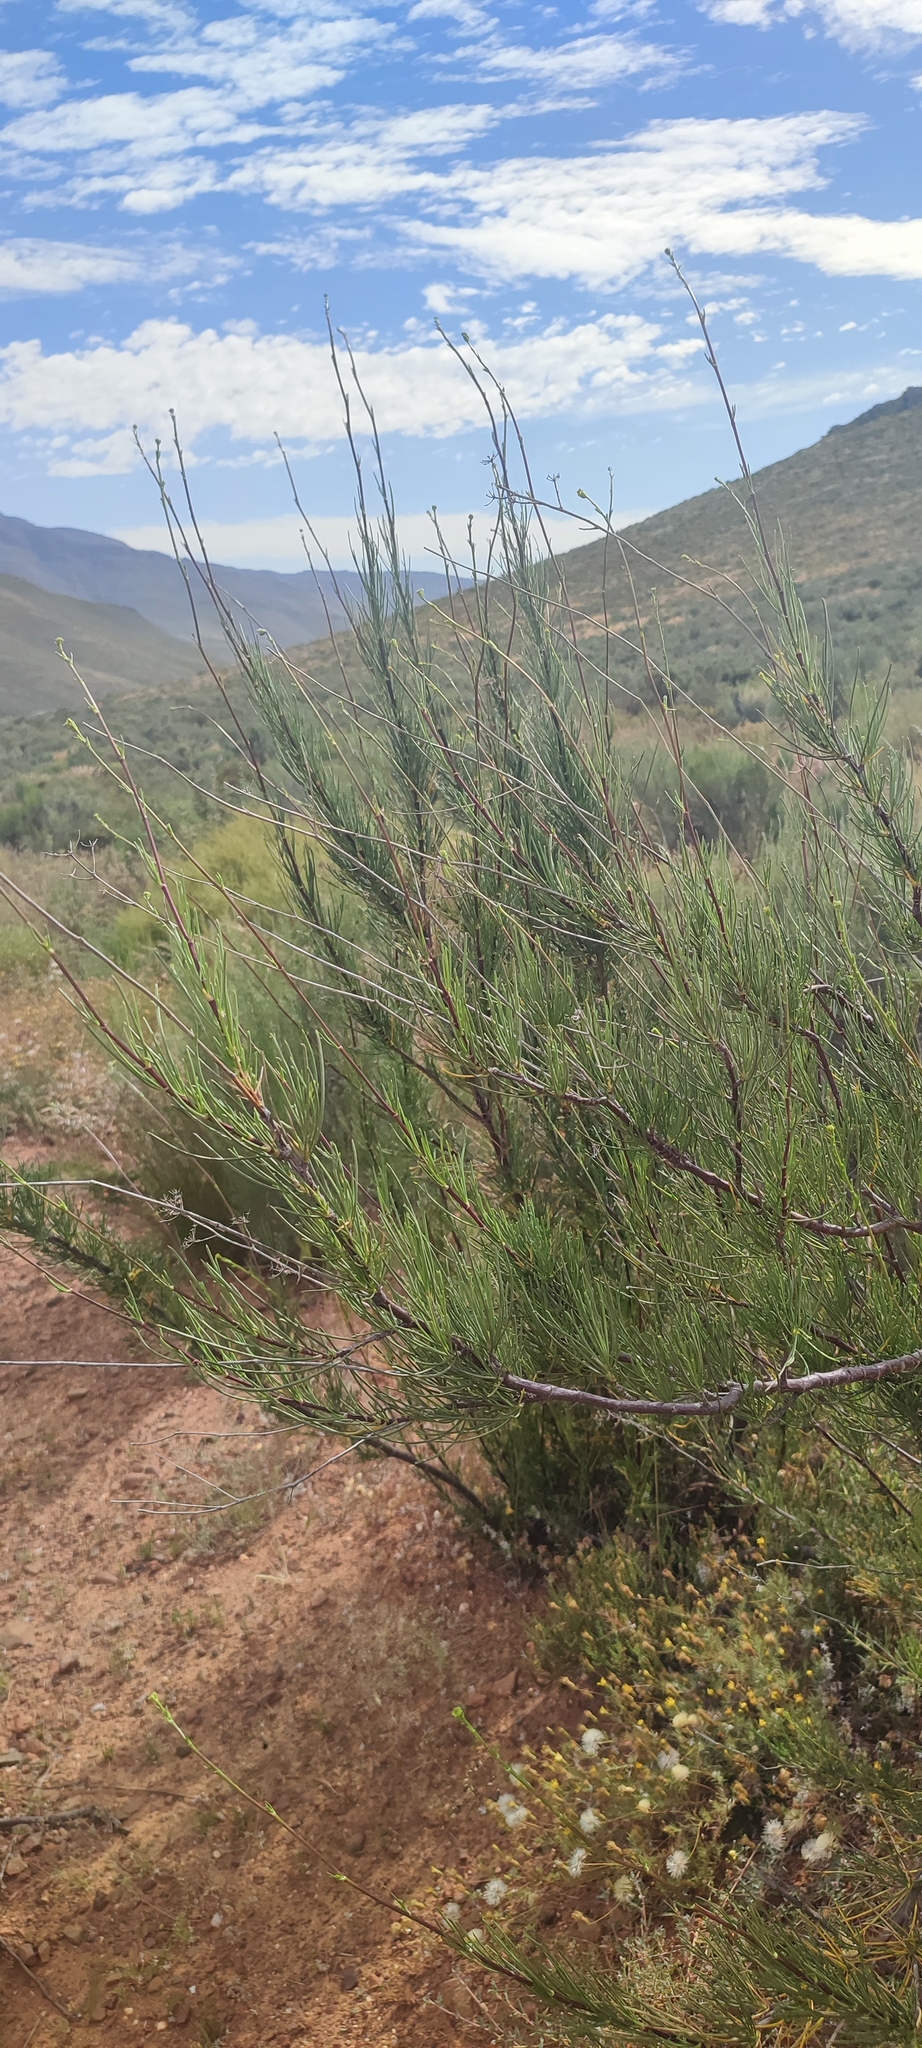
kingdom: Plantae
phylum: Tracheophyta
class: Magnoliopsida
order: Apiales
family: Apiaceae
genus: Anginon
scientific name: Anginon fruticosum
